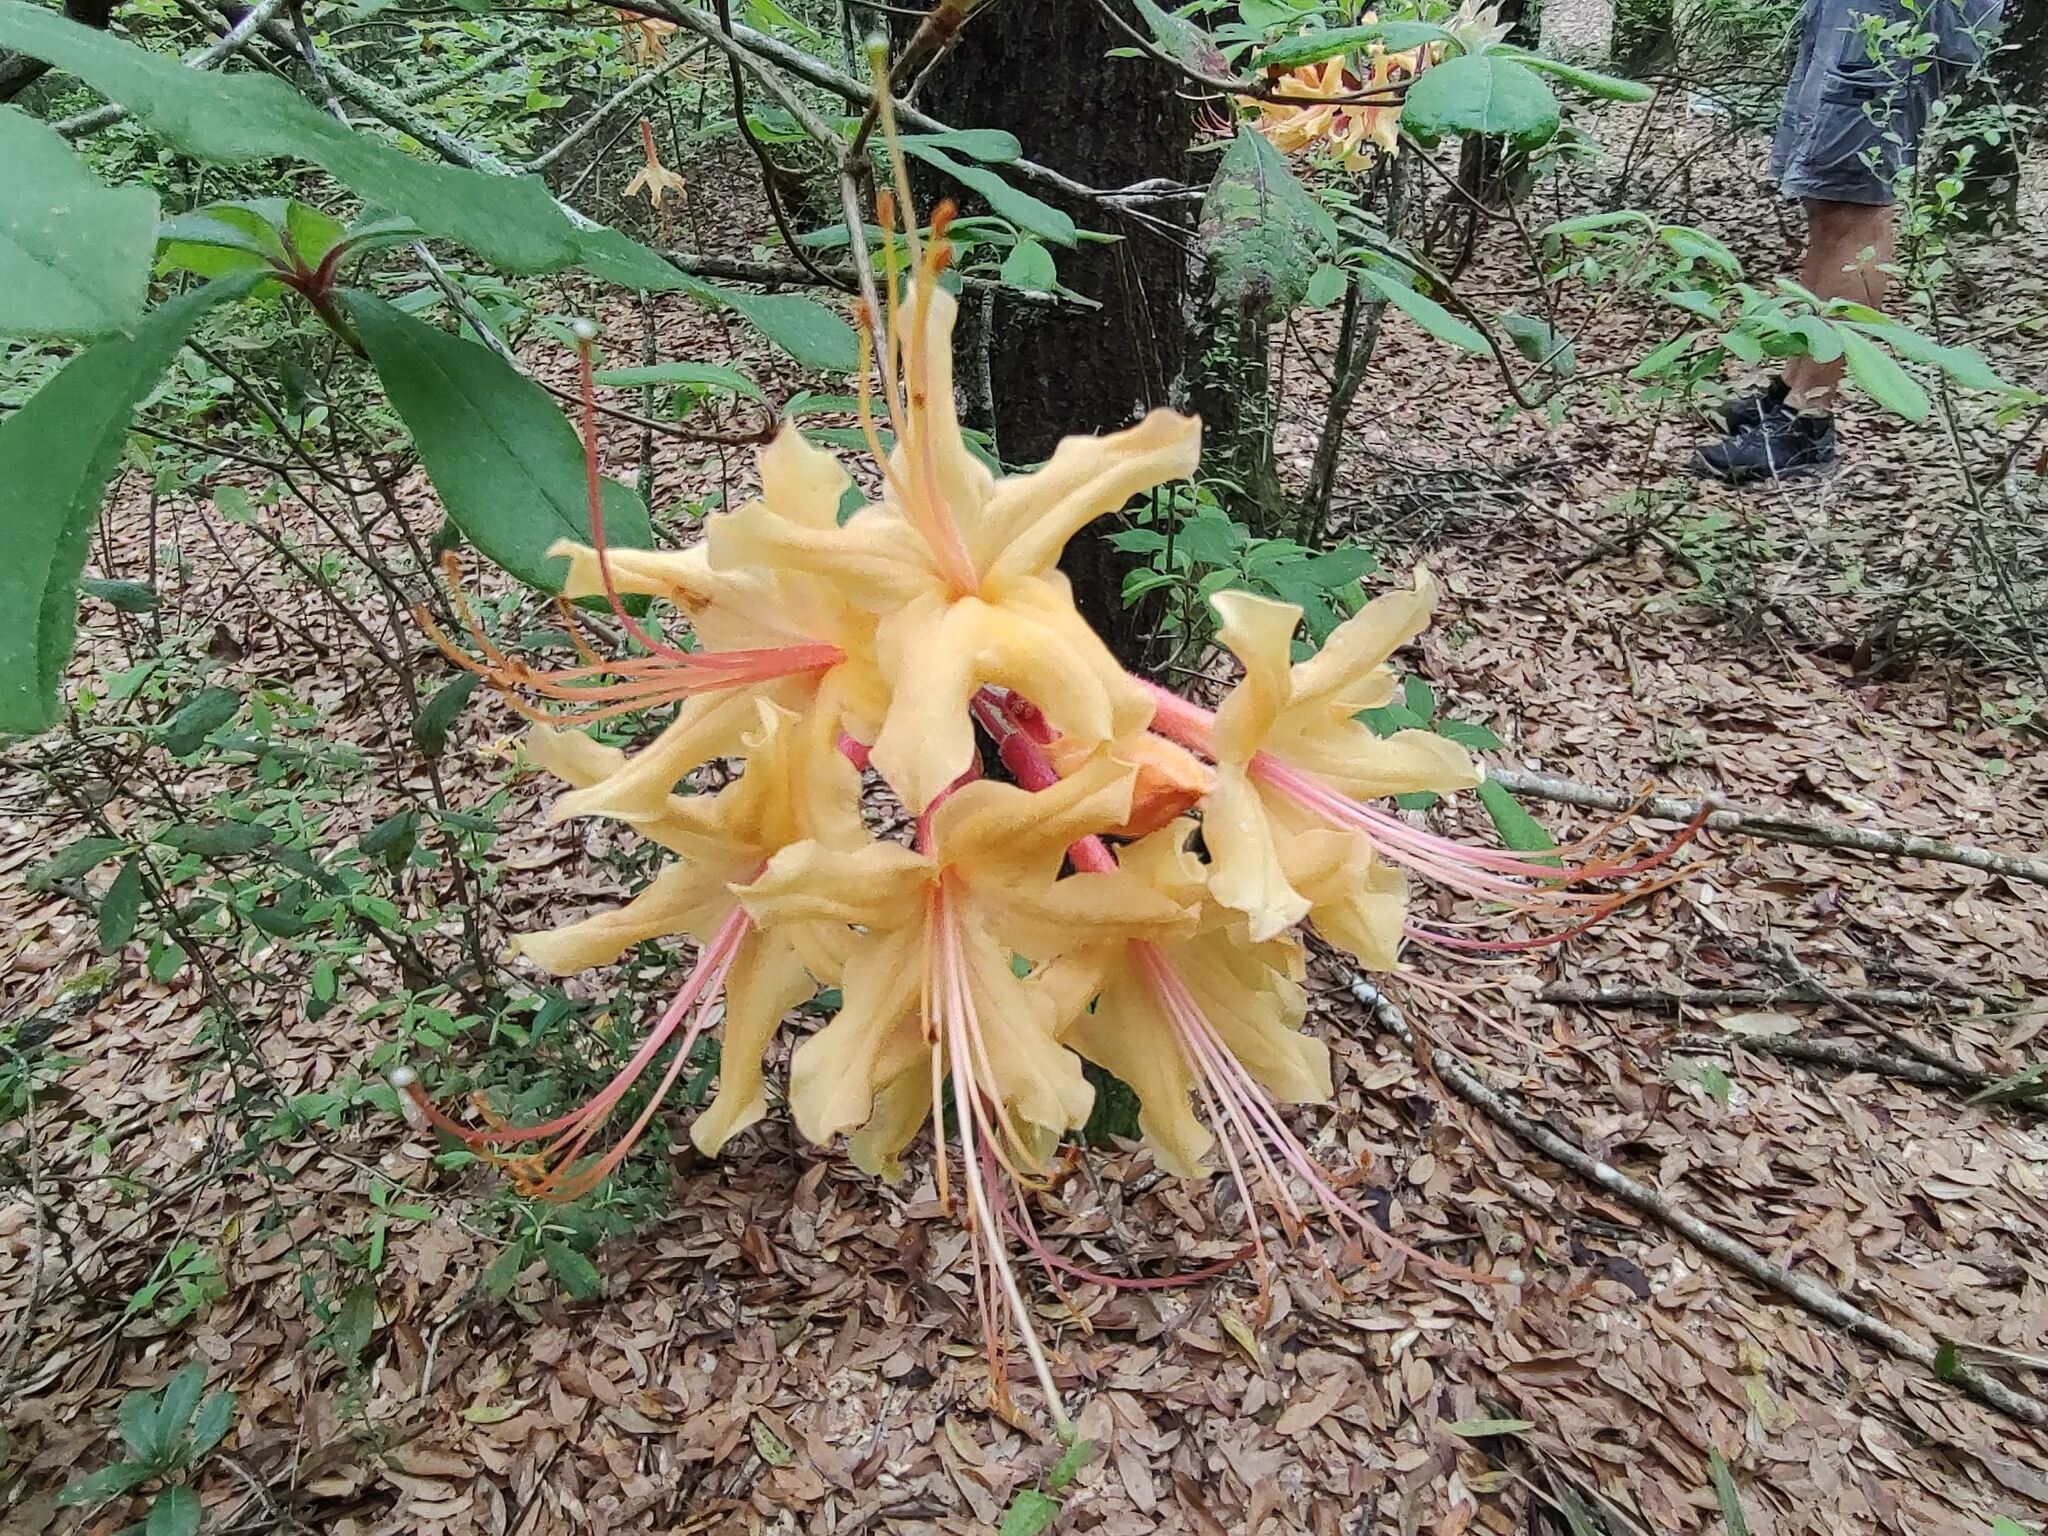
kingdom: Plantae
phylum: Tracheophyta
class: Magnoliopsida
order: Ericales
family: Ericaceae
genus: Rhododendron
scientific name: Rhododendron austrinum
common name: Florida azalea
